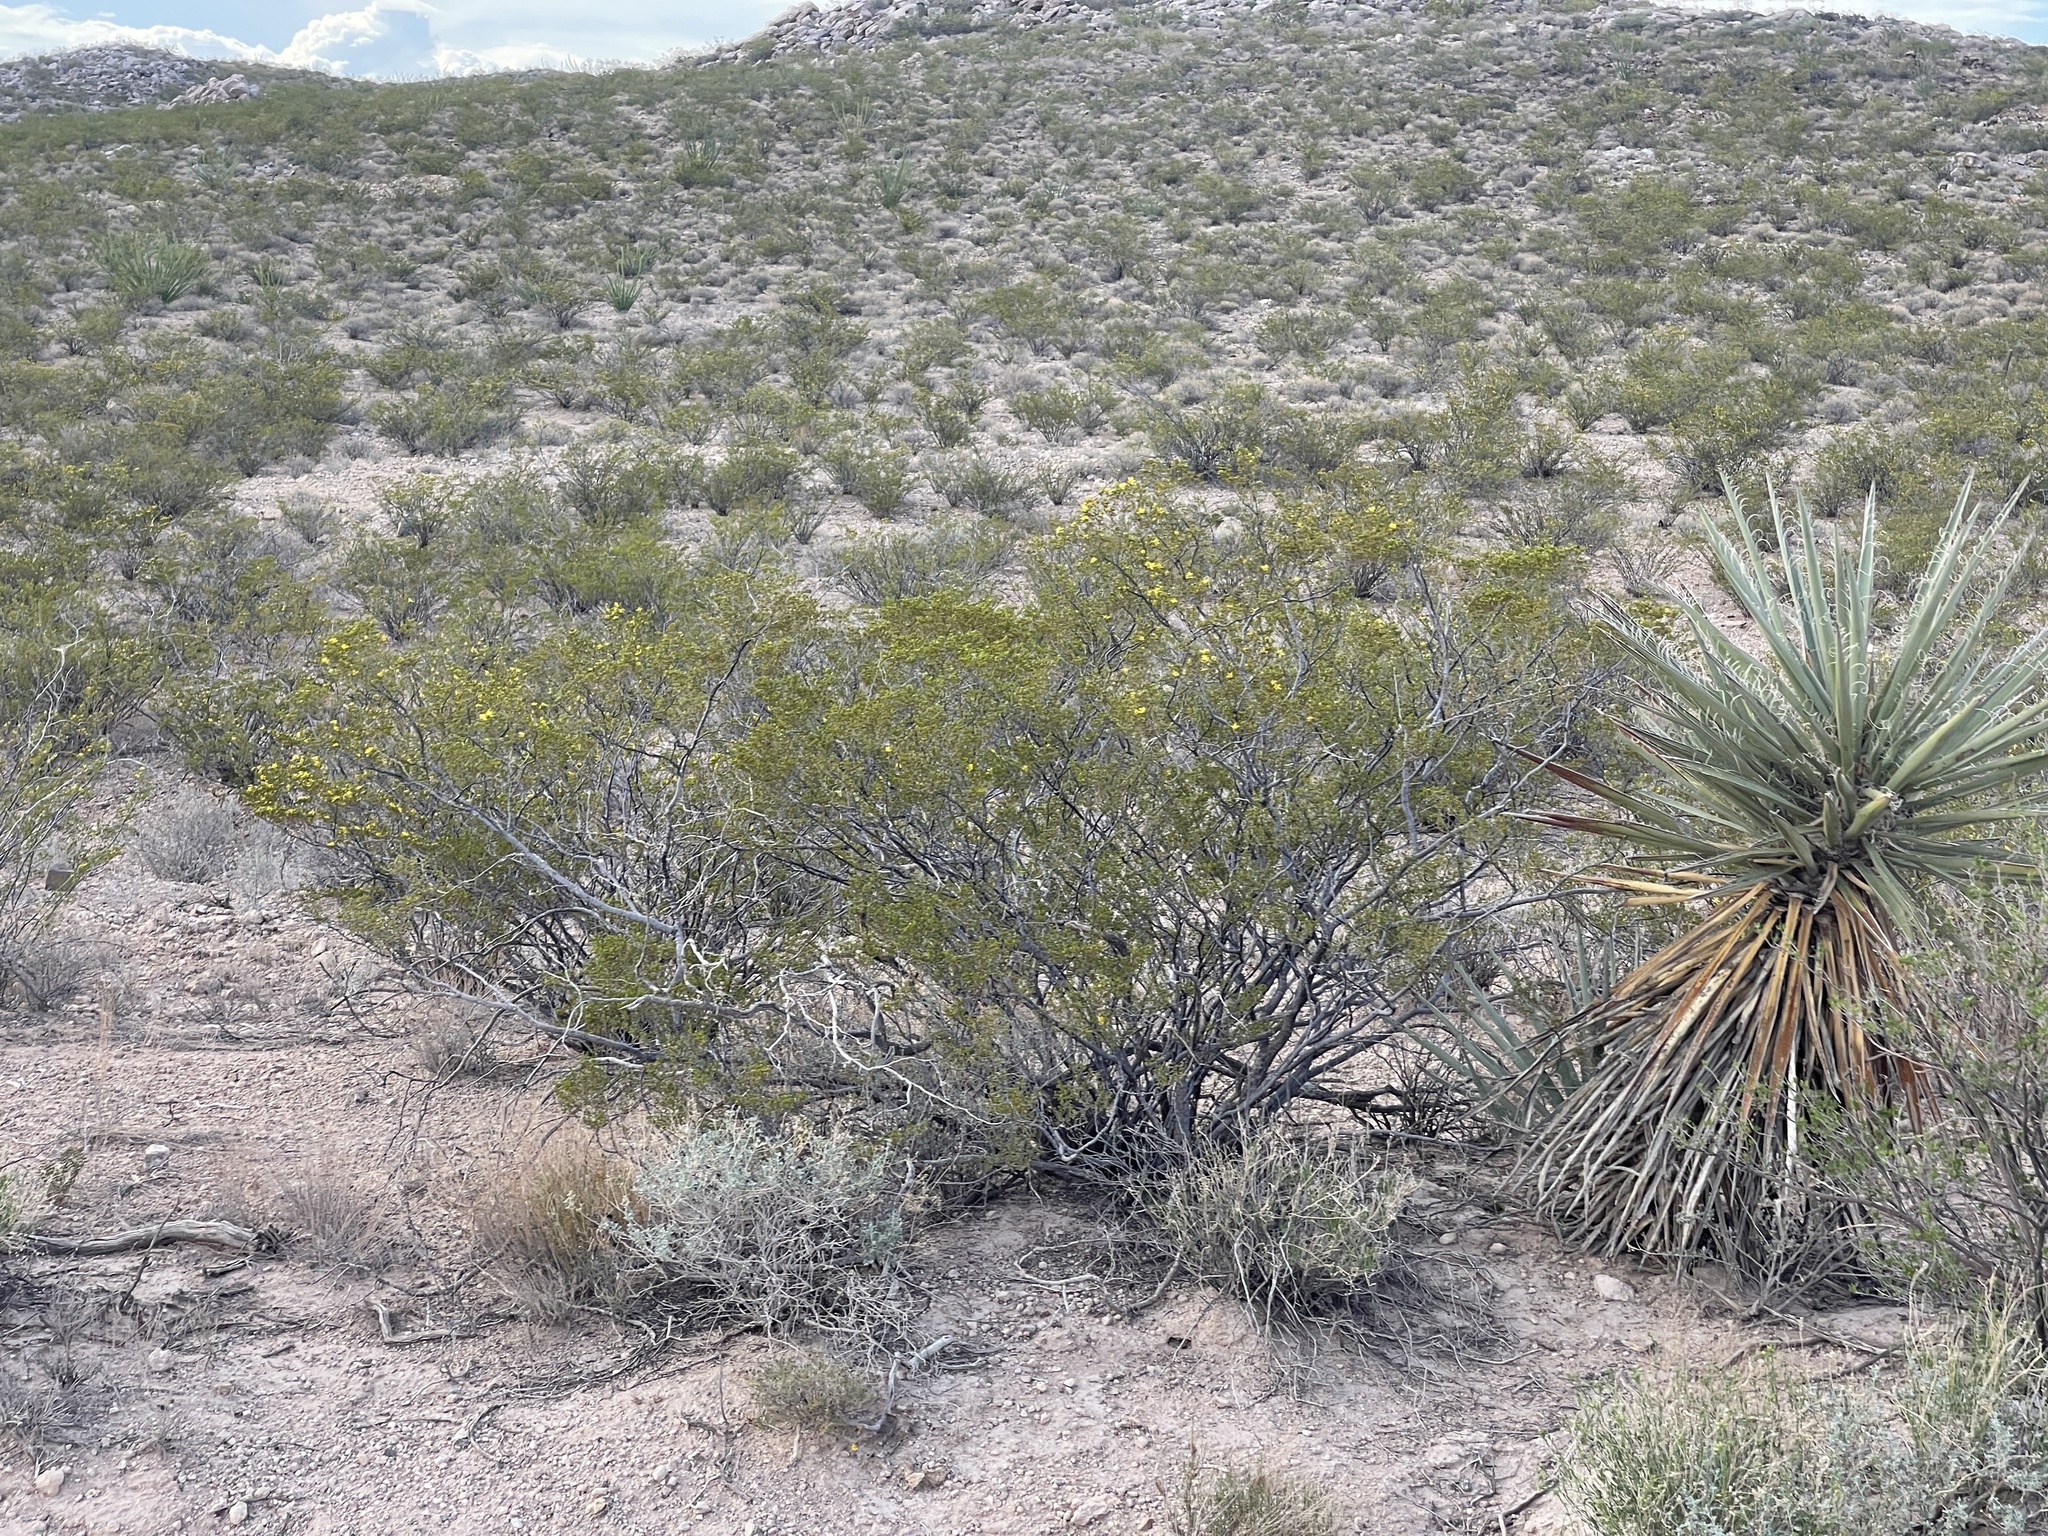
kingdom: Plantae
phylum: Tracheophyta
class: Magnoliopsida
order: Zygophyllales
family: Zygophyllaceae
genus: Larrea
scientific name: Larrea tridentata
